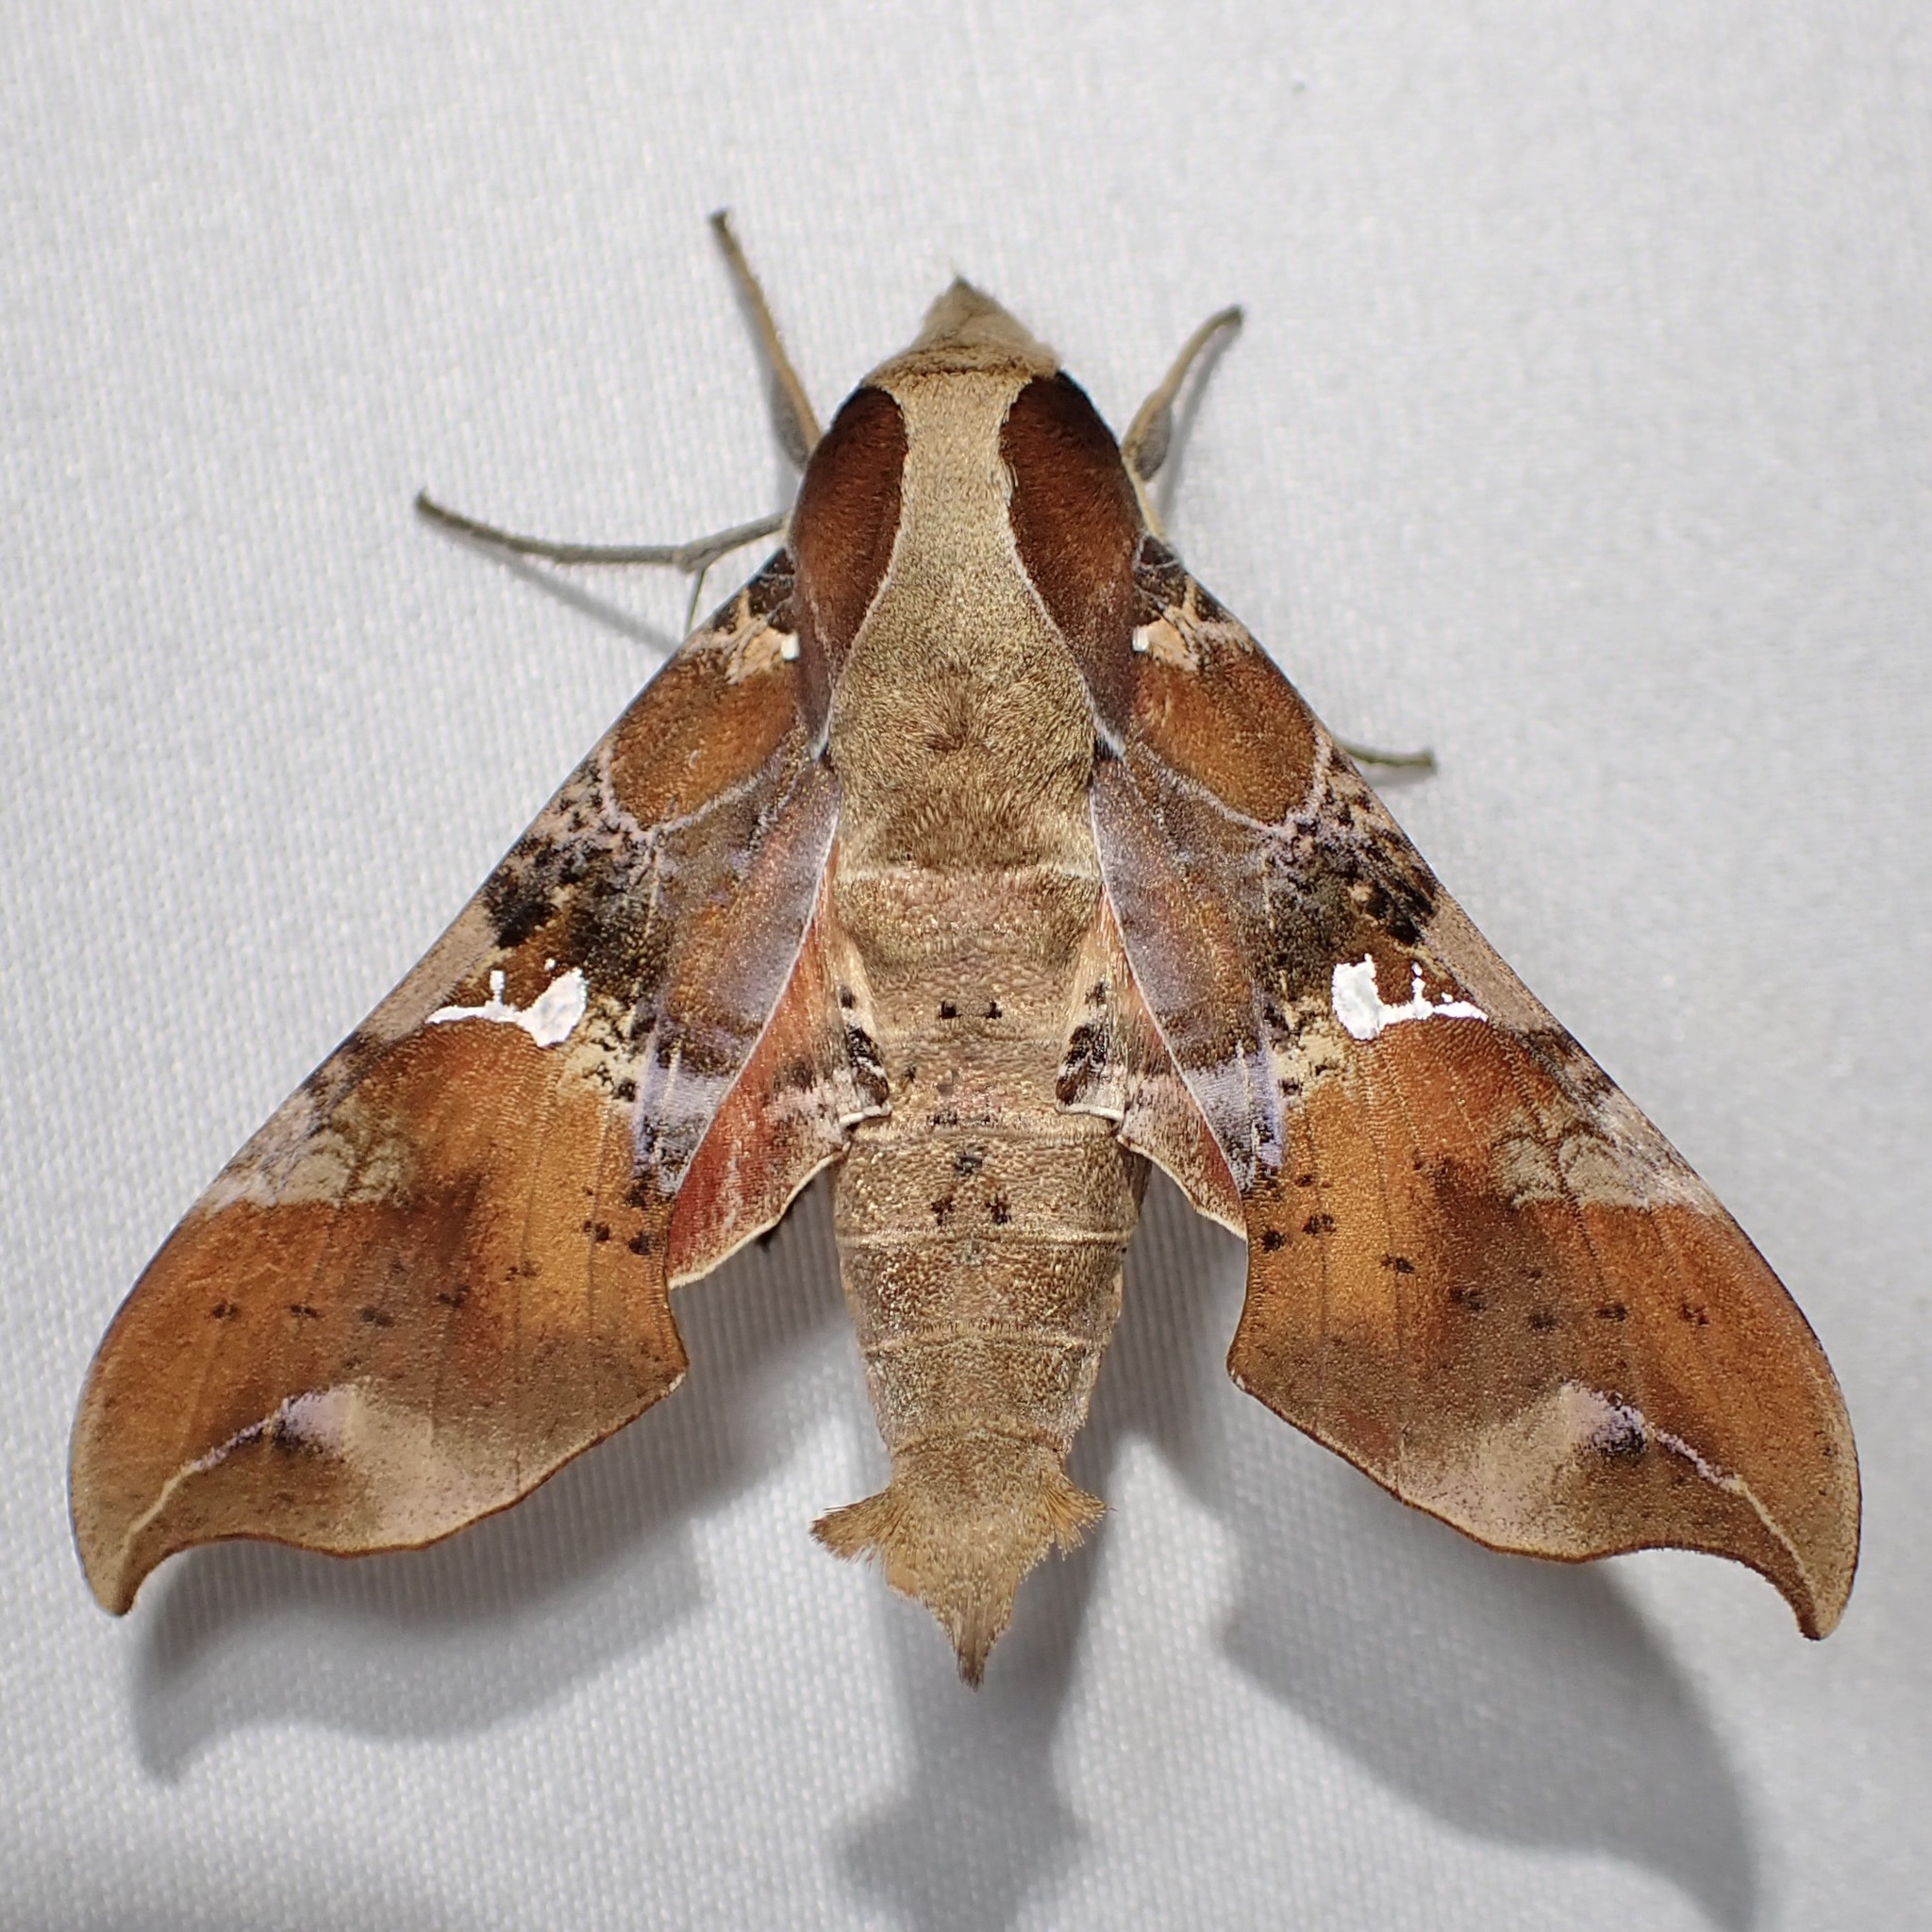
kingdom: Animalia
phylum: Arthropoda
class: Insecta
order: Lepidoptera
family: Sphingidae
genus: Callionima
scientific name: Callionima falcifera
